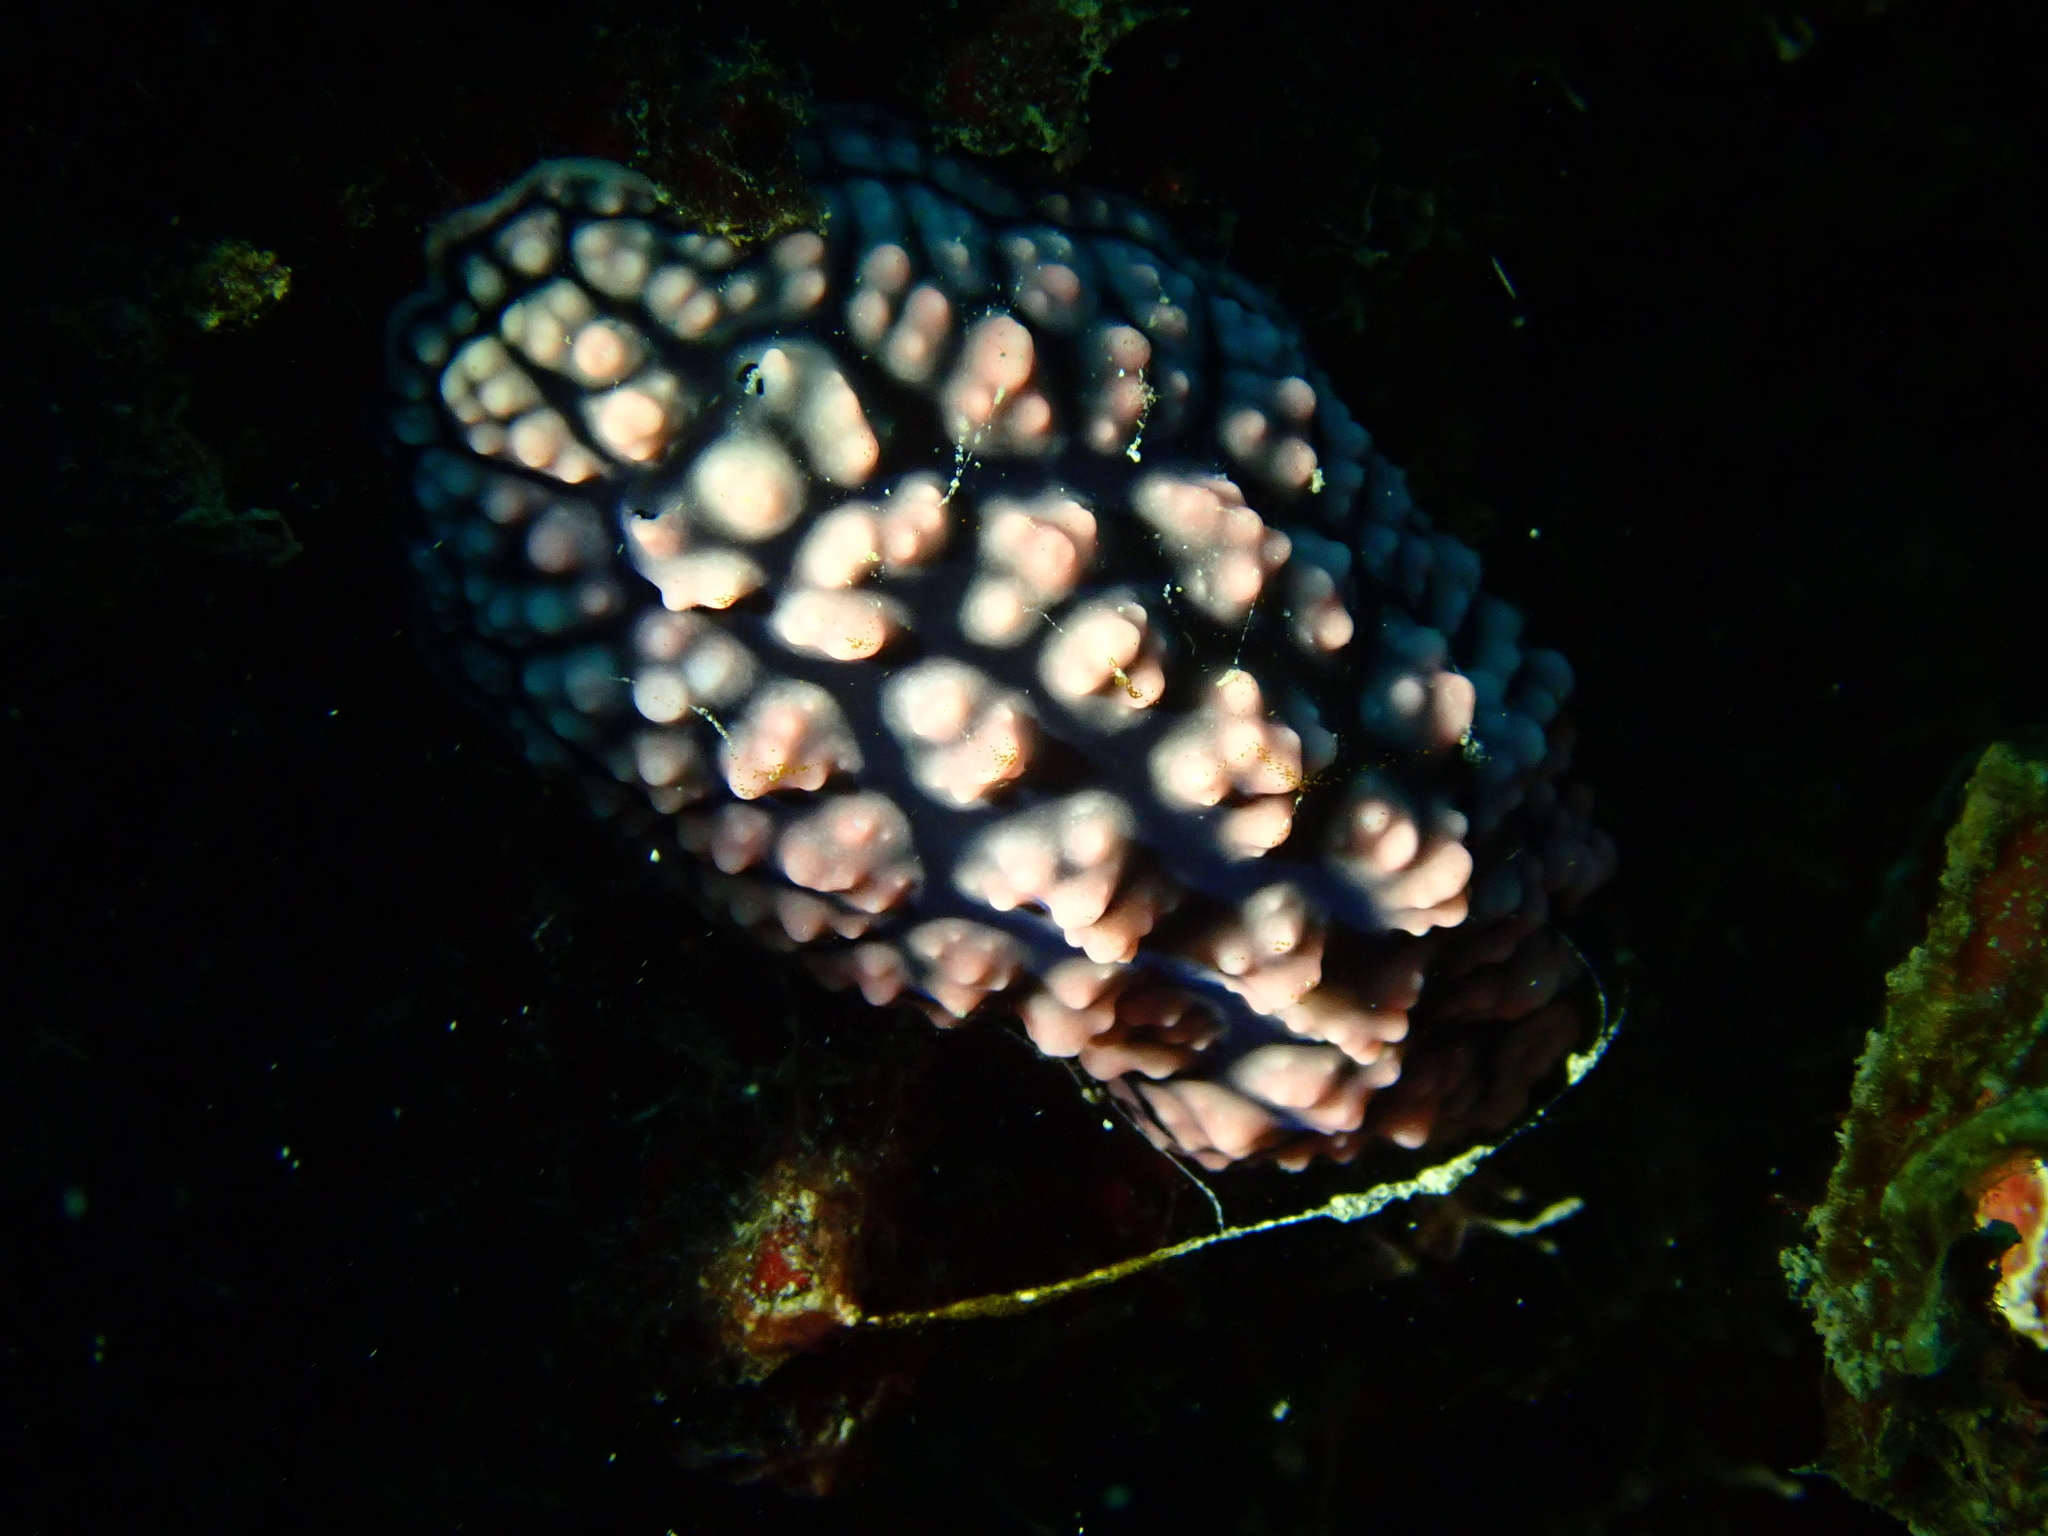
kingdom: Animalia
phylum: Mollusca
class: Gastropoda
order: Nudibranchia
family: Phyllidiidae
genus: Phyllidiella
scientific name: Phyllidiella pustulosa
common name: Pustular phyllidia
